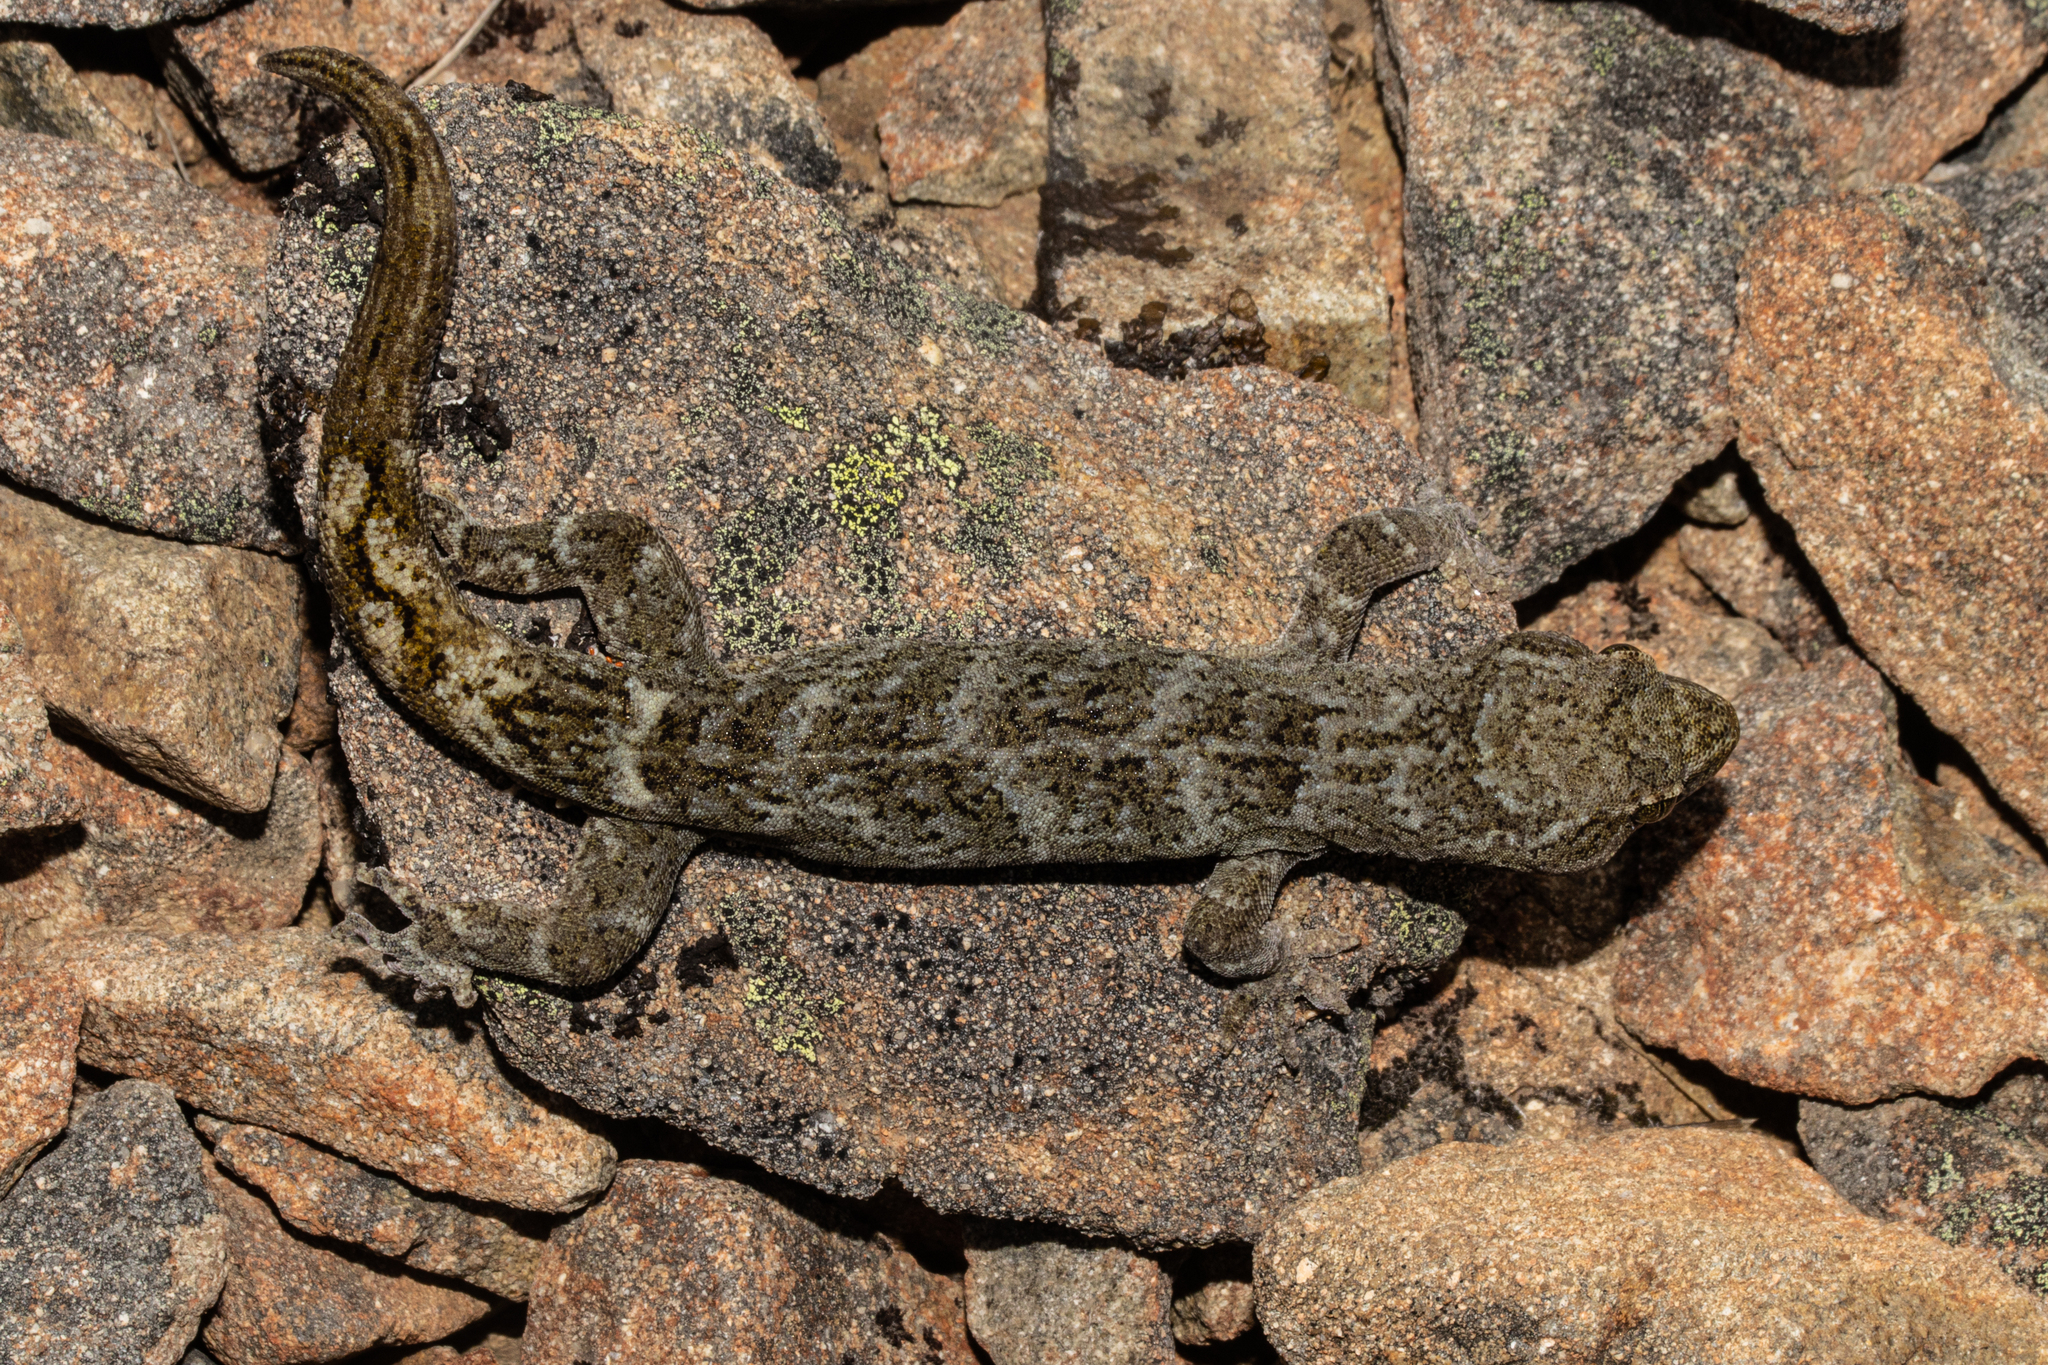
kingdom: Animalia
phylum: Chordata
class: Squamata
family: Diplodactylidae
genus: Woodworthia
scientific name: Woodworthia
